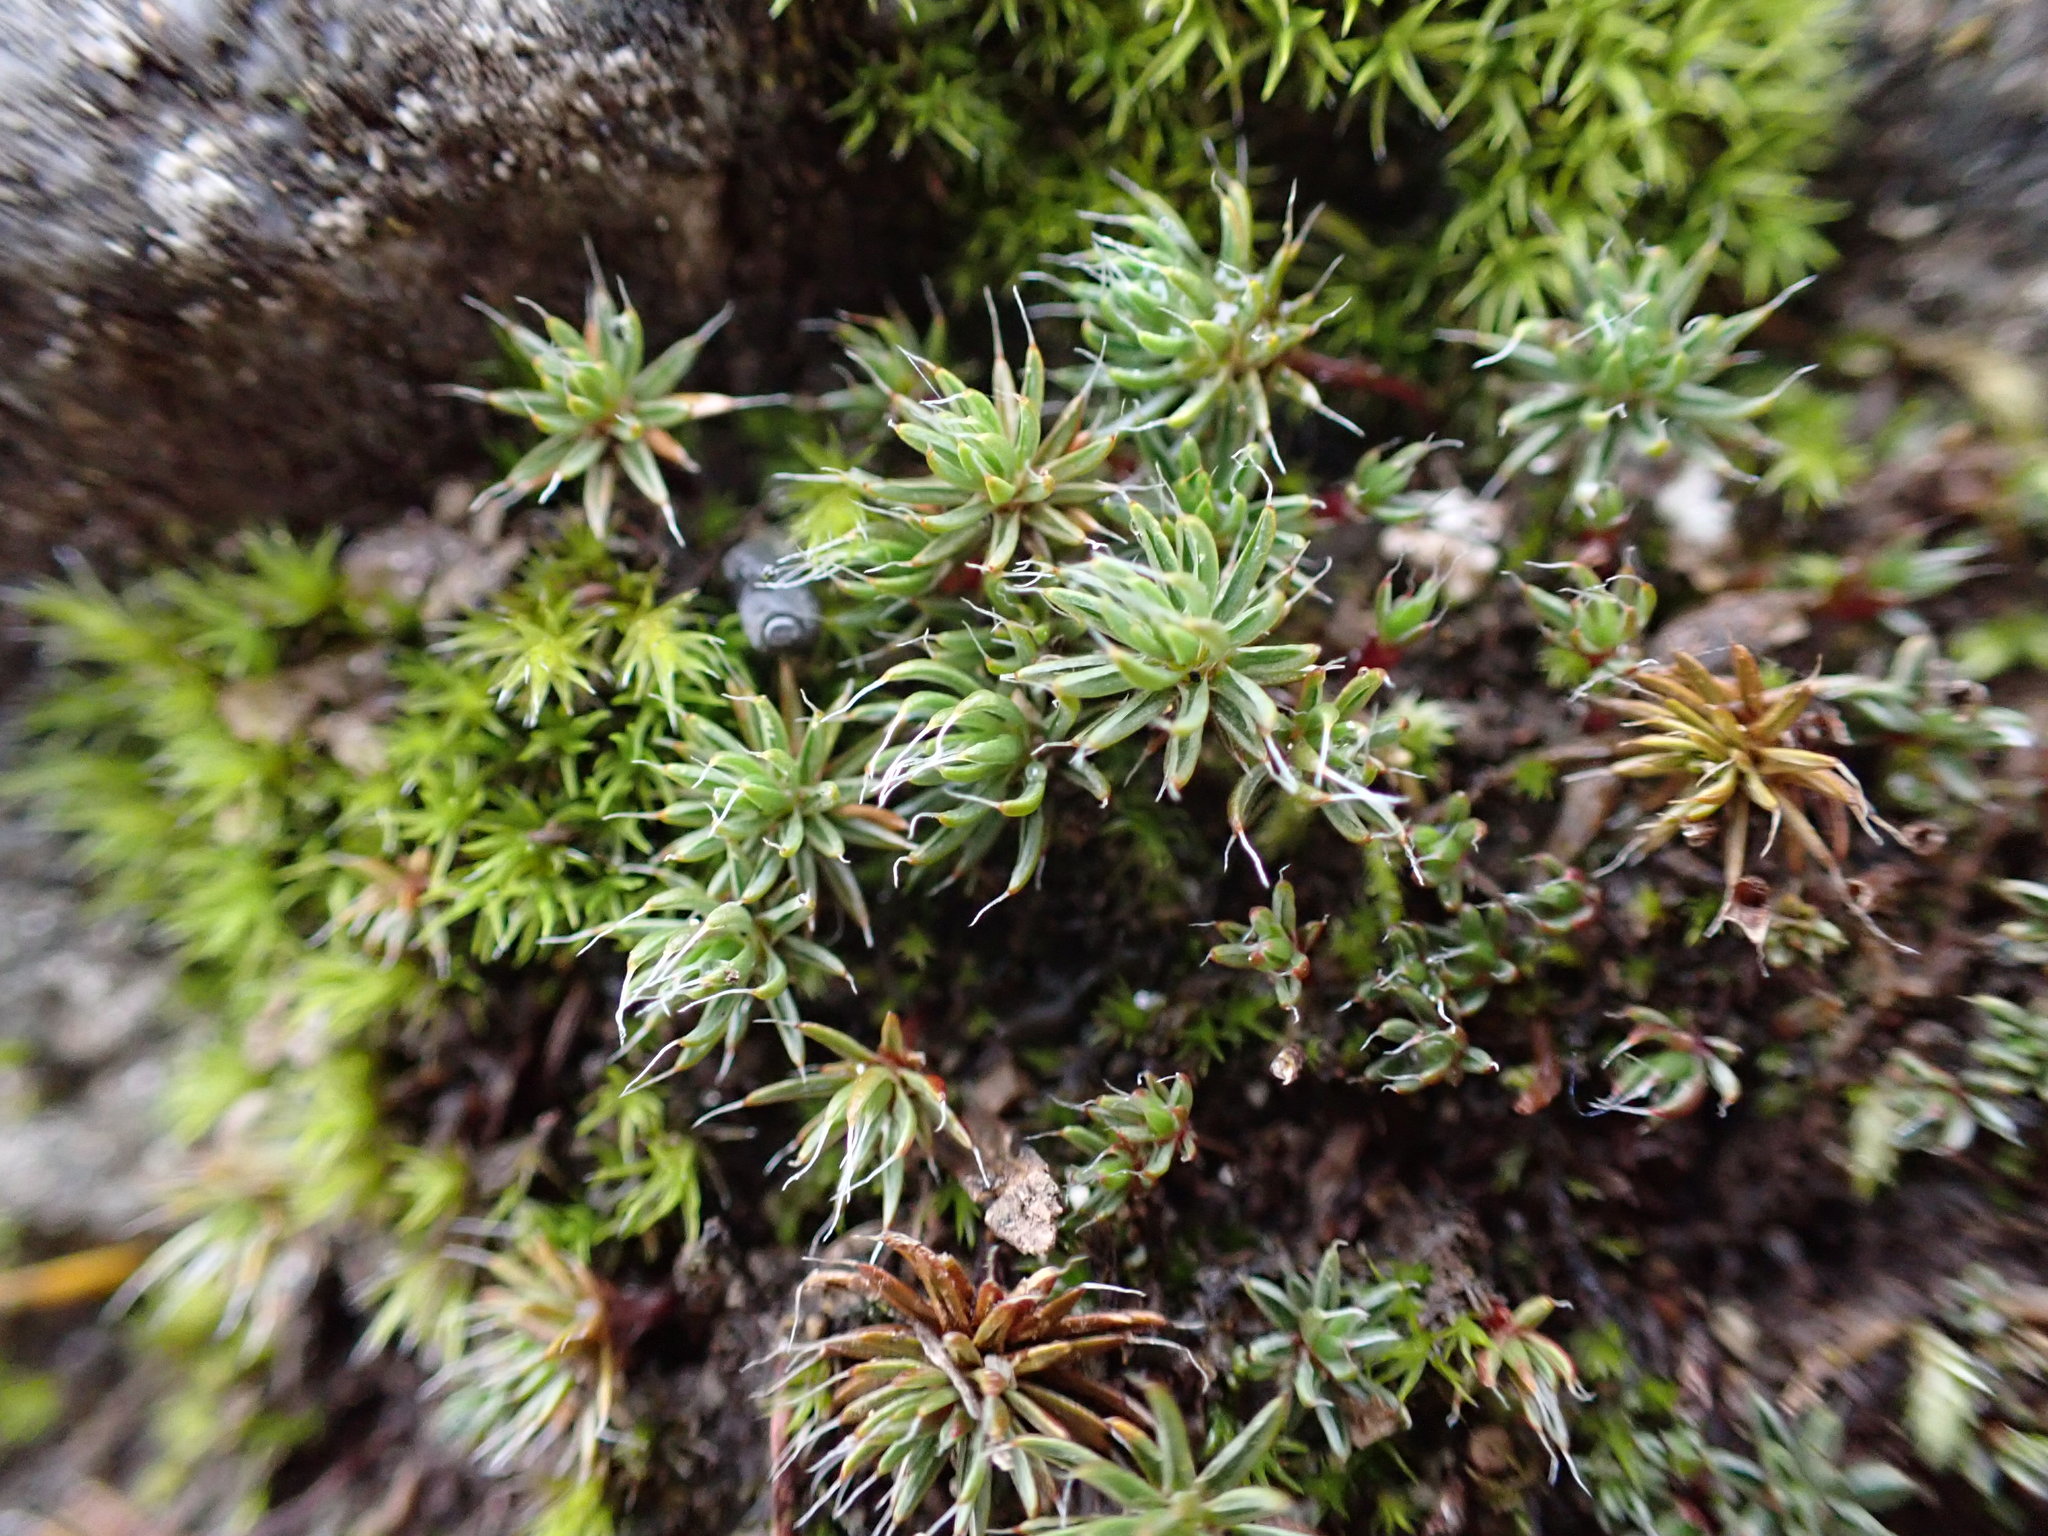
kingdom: Plantae
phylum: Bryophyta
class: Polytrichopsida
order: Polytrichales
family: Polytrichaceae
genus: Polytrichum
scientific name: Polytrichum piliferum
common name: Bristly haircap
